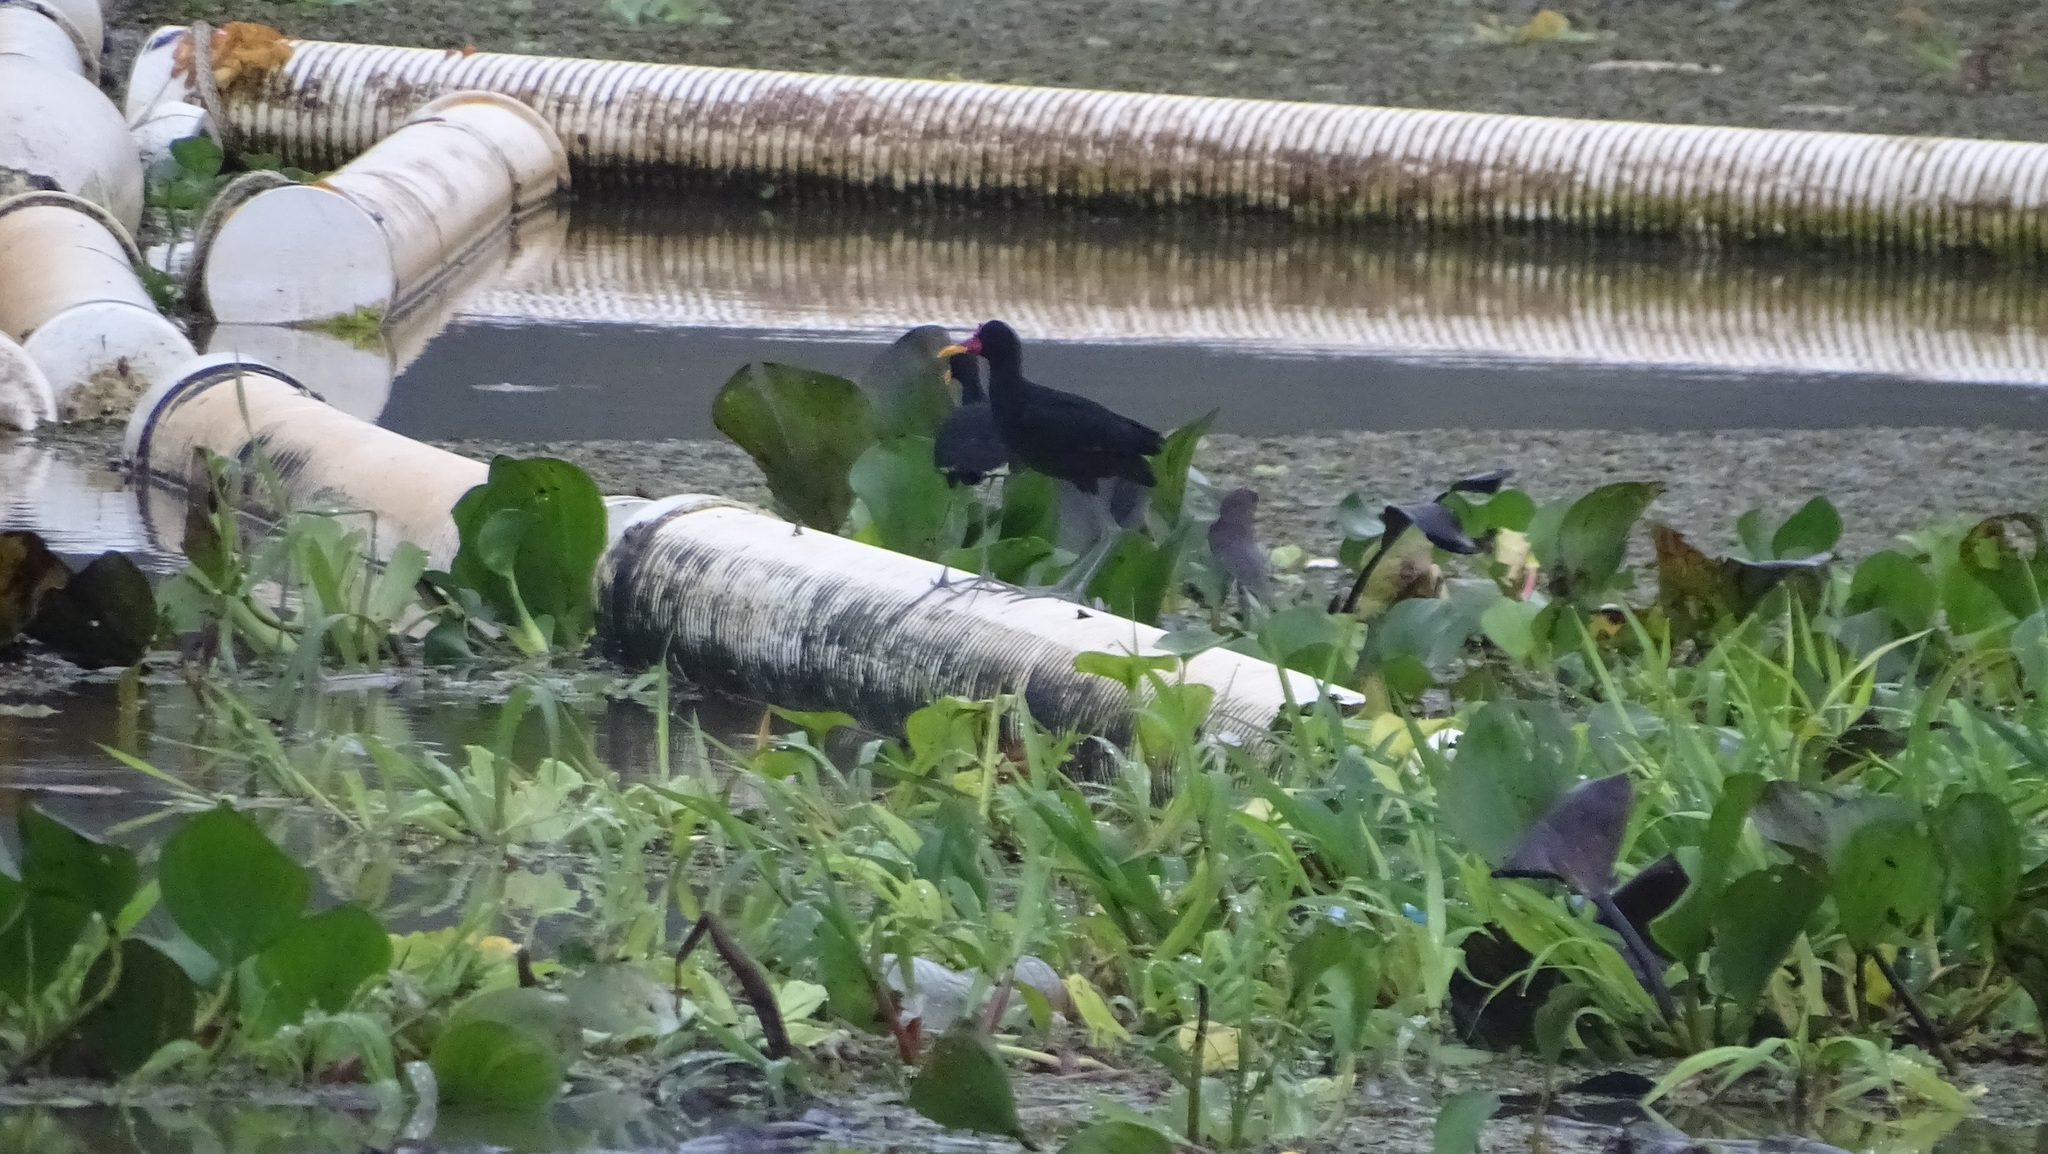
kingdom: Animalia
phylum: Chordata
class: Aves
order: Charadriiformes
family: Jacanidae
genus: Jacana
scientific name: Jacana jacana
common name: Wattled jacana
